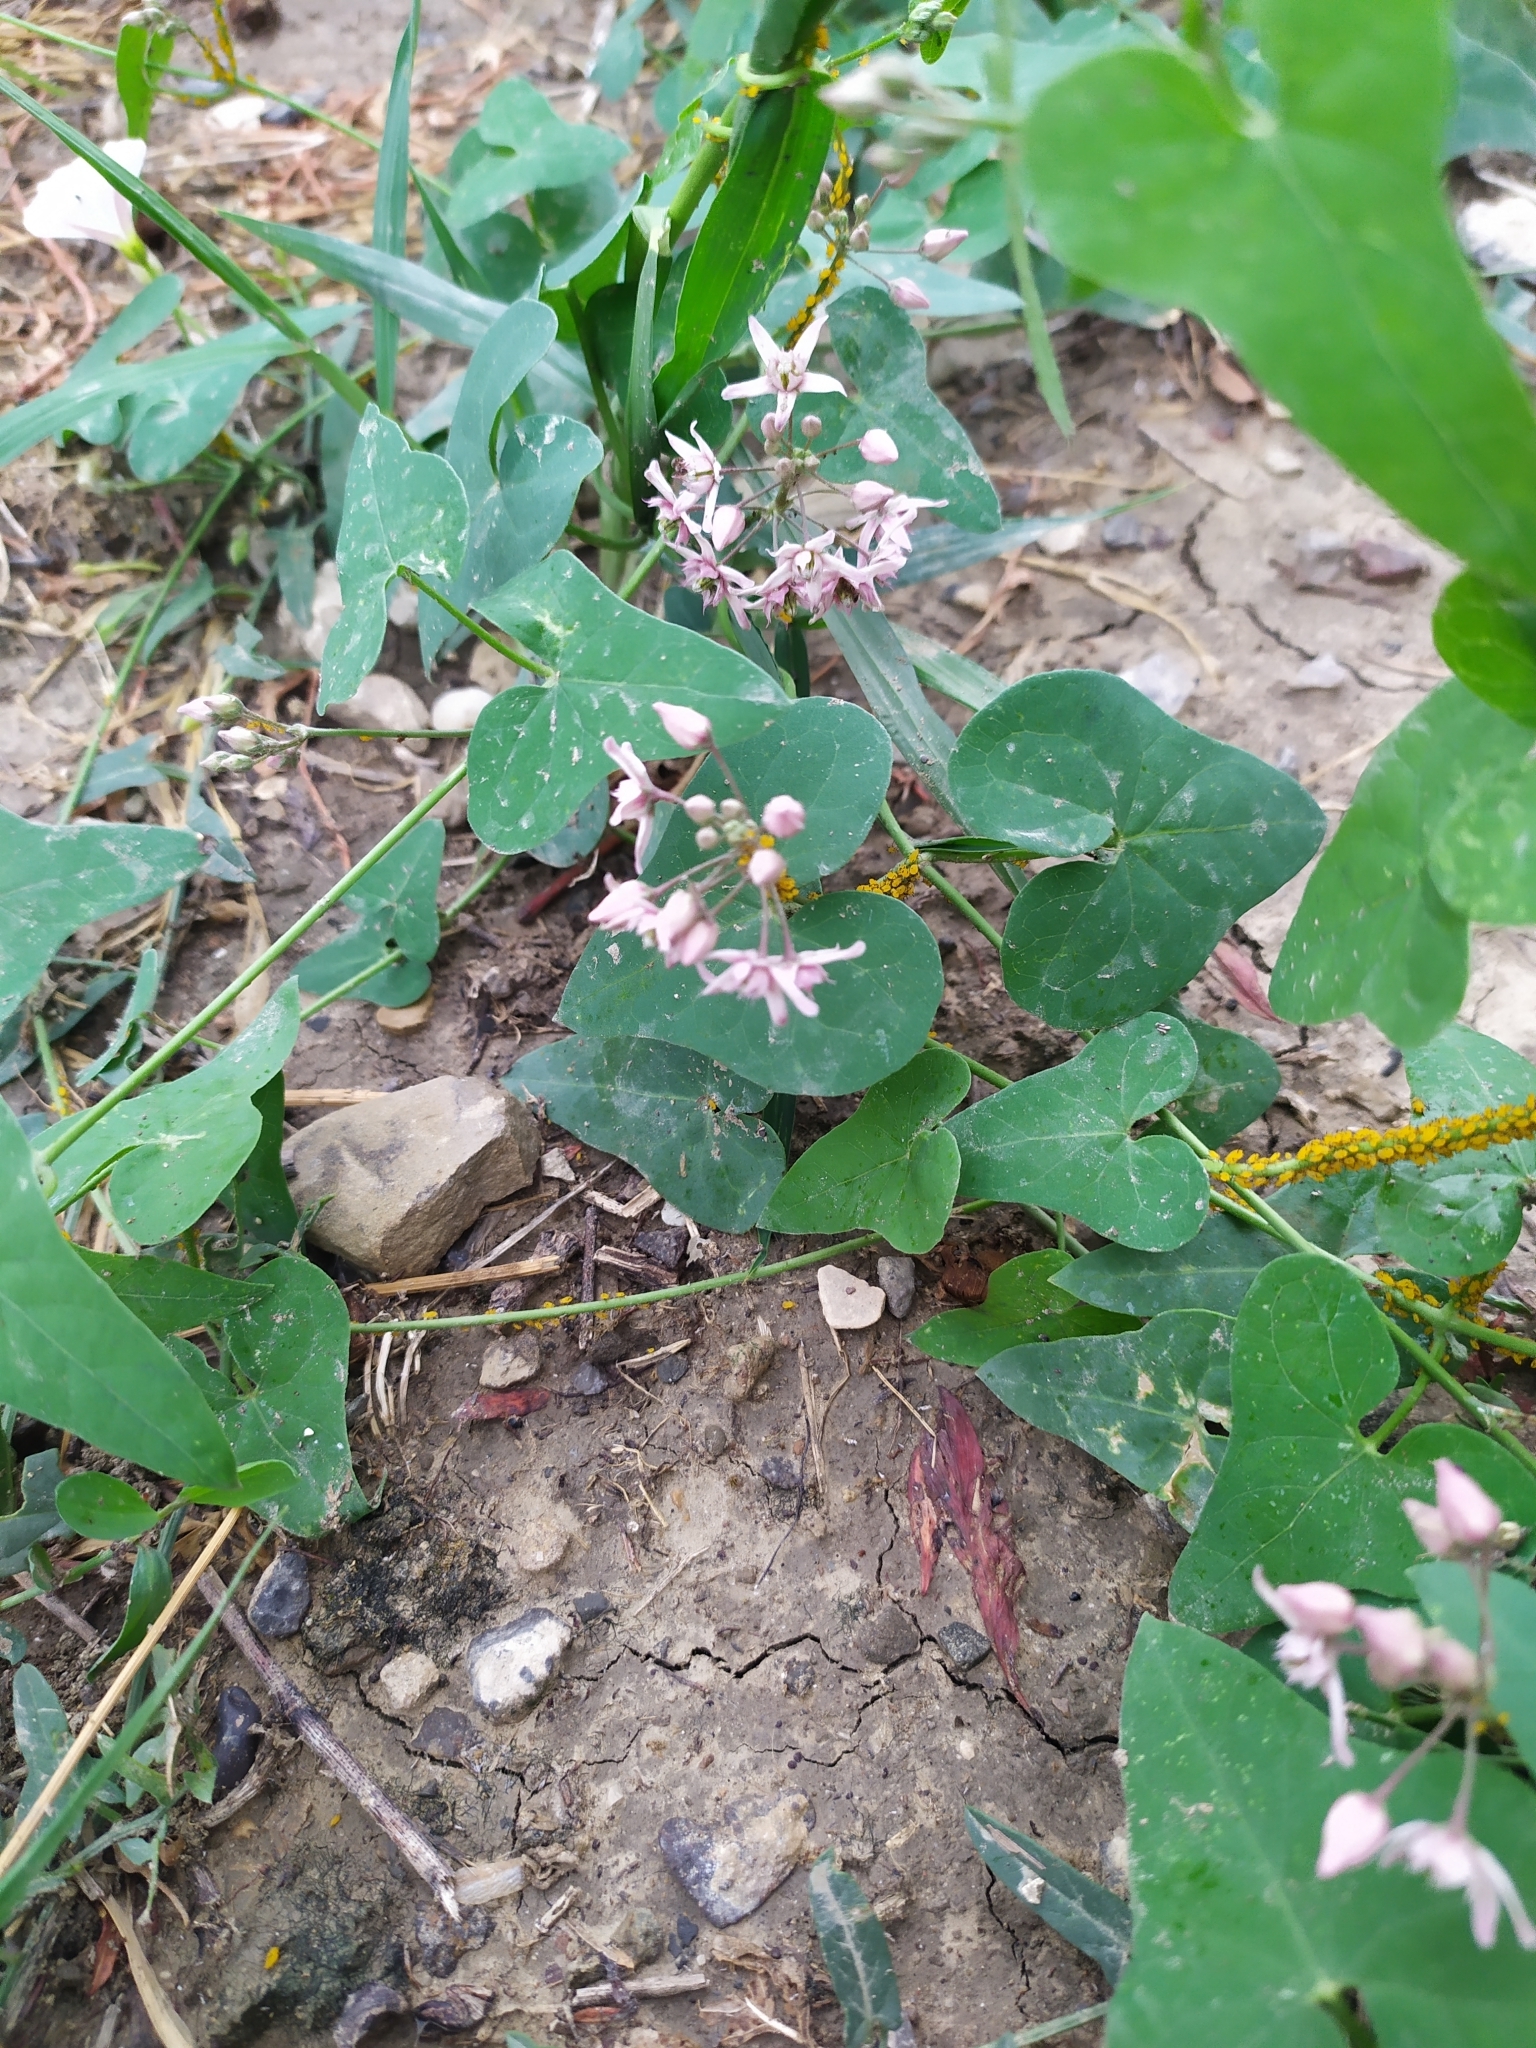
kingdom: Plantae
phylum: Tracheophyta
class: Magnoliopsida
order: Gentianales
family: Apocynaceae
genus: Cynanchum
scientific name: Cynanchum acutum
